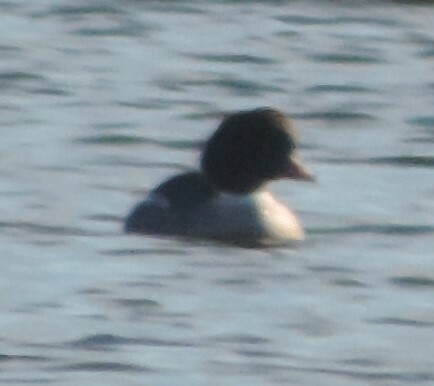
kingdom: Animalia
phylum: Chordata
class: Aves
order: Anseriformes
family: Anatidae
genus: Bucephala
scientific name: Bucephala islandica
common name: Barrow's goldeneye
